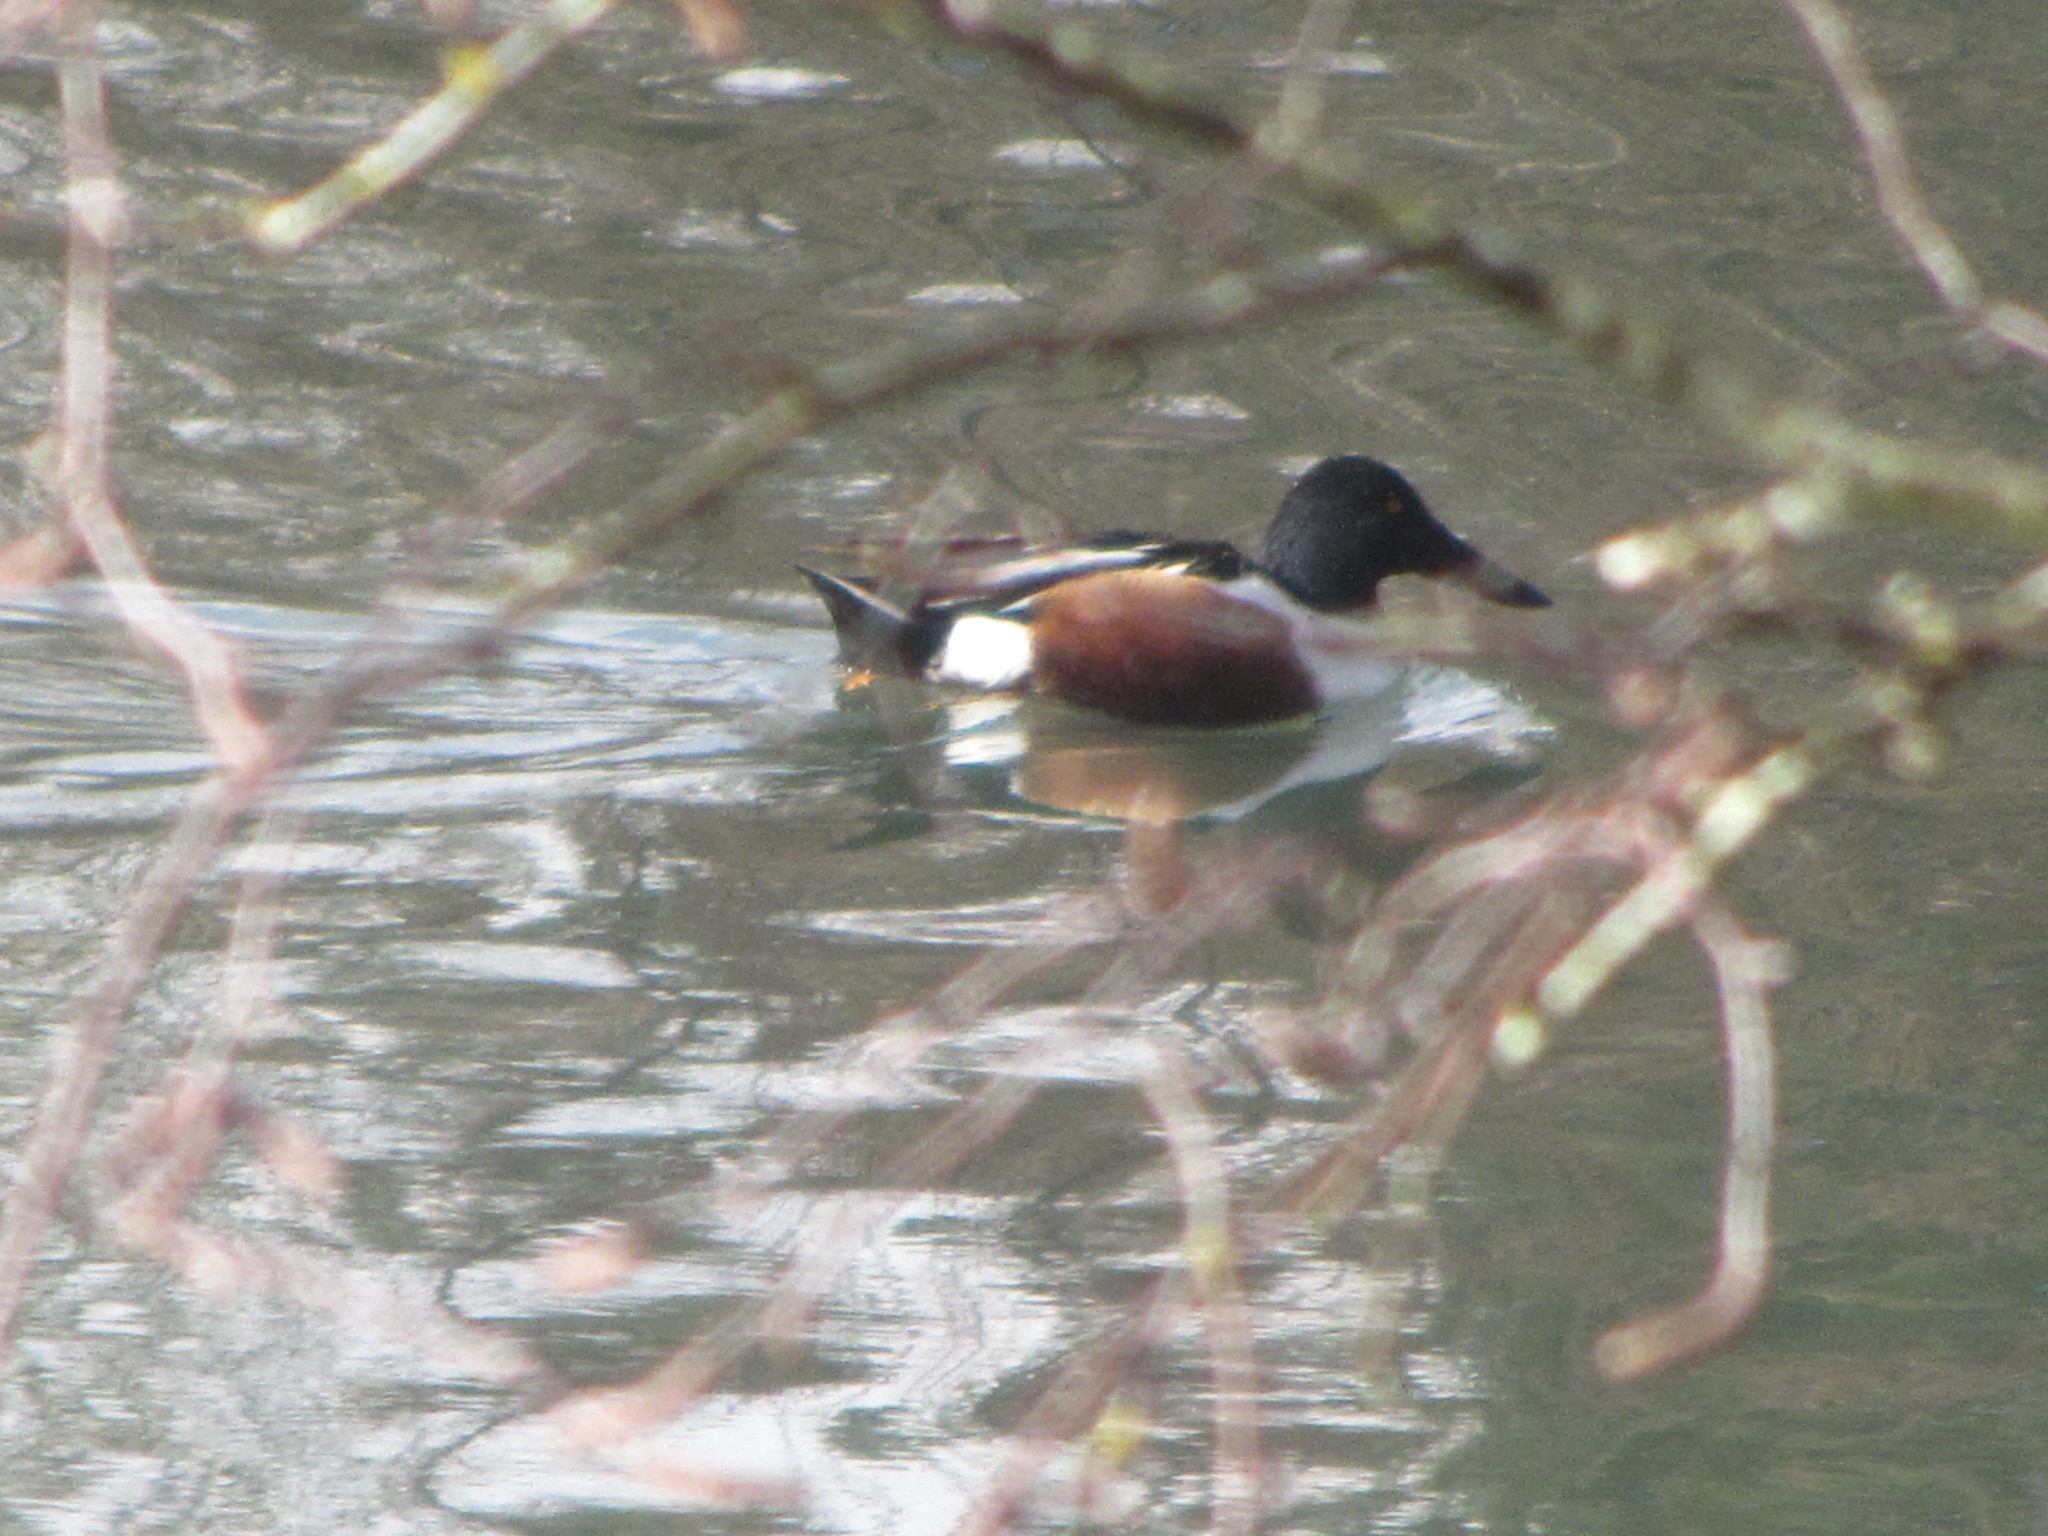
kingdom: Animalia
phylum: Chordata
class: Aves
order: Anseriformes
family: Anatidae
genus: Spatula
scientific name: Spatula clypeata
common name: Northern shoveler
